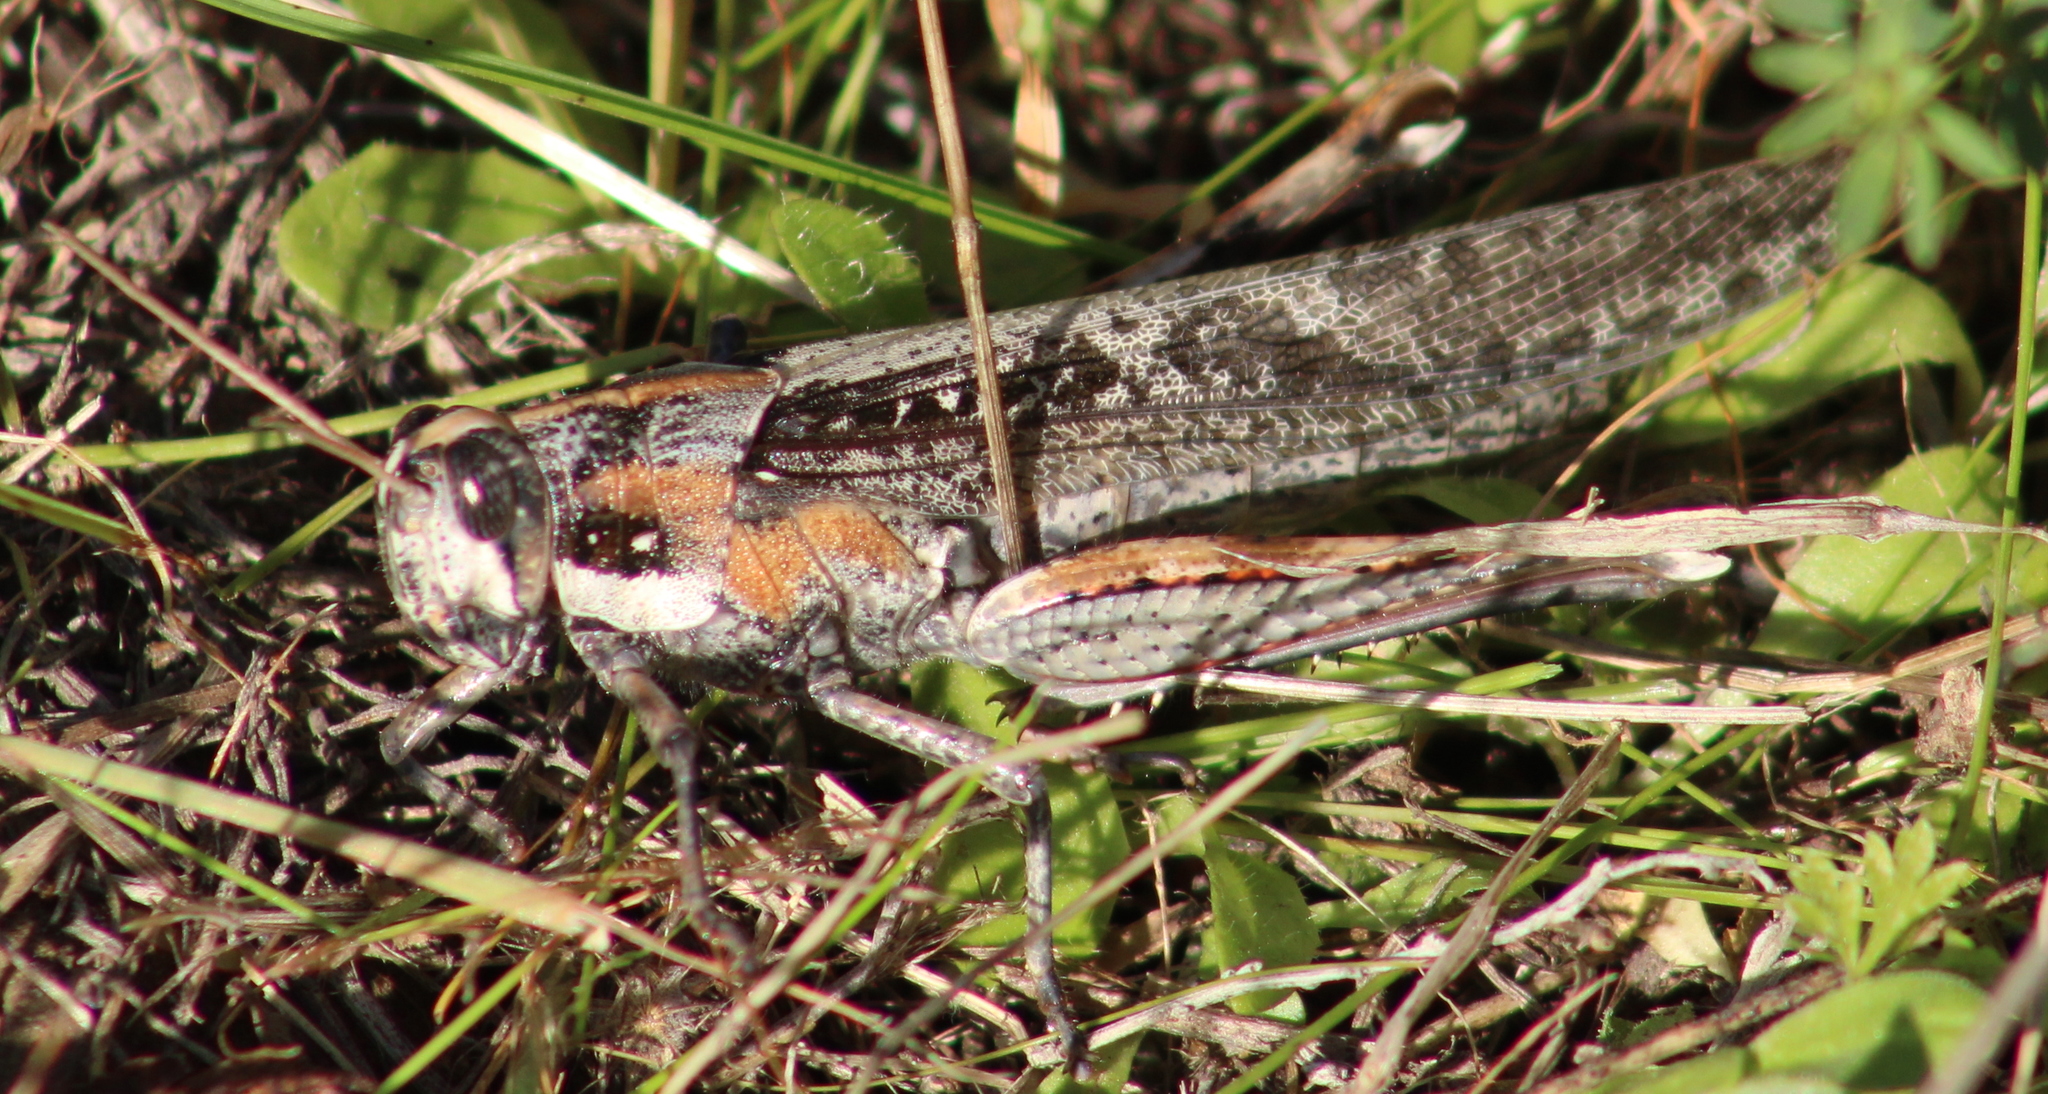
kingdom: Animalia
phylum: Arthropoda
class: Insecta
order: Orthoptera
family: Acrididae
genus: Schistocerca
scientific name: Schistocerca nitens
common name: Vagrant grasshopper
